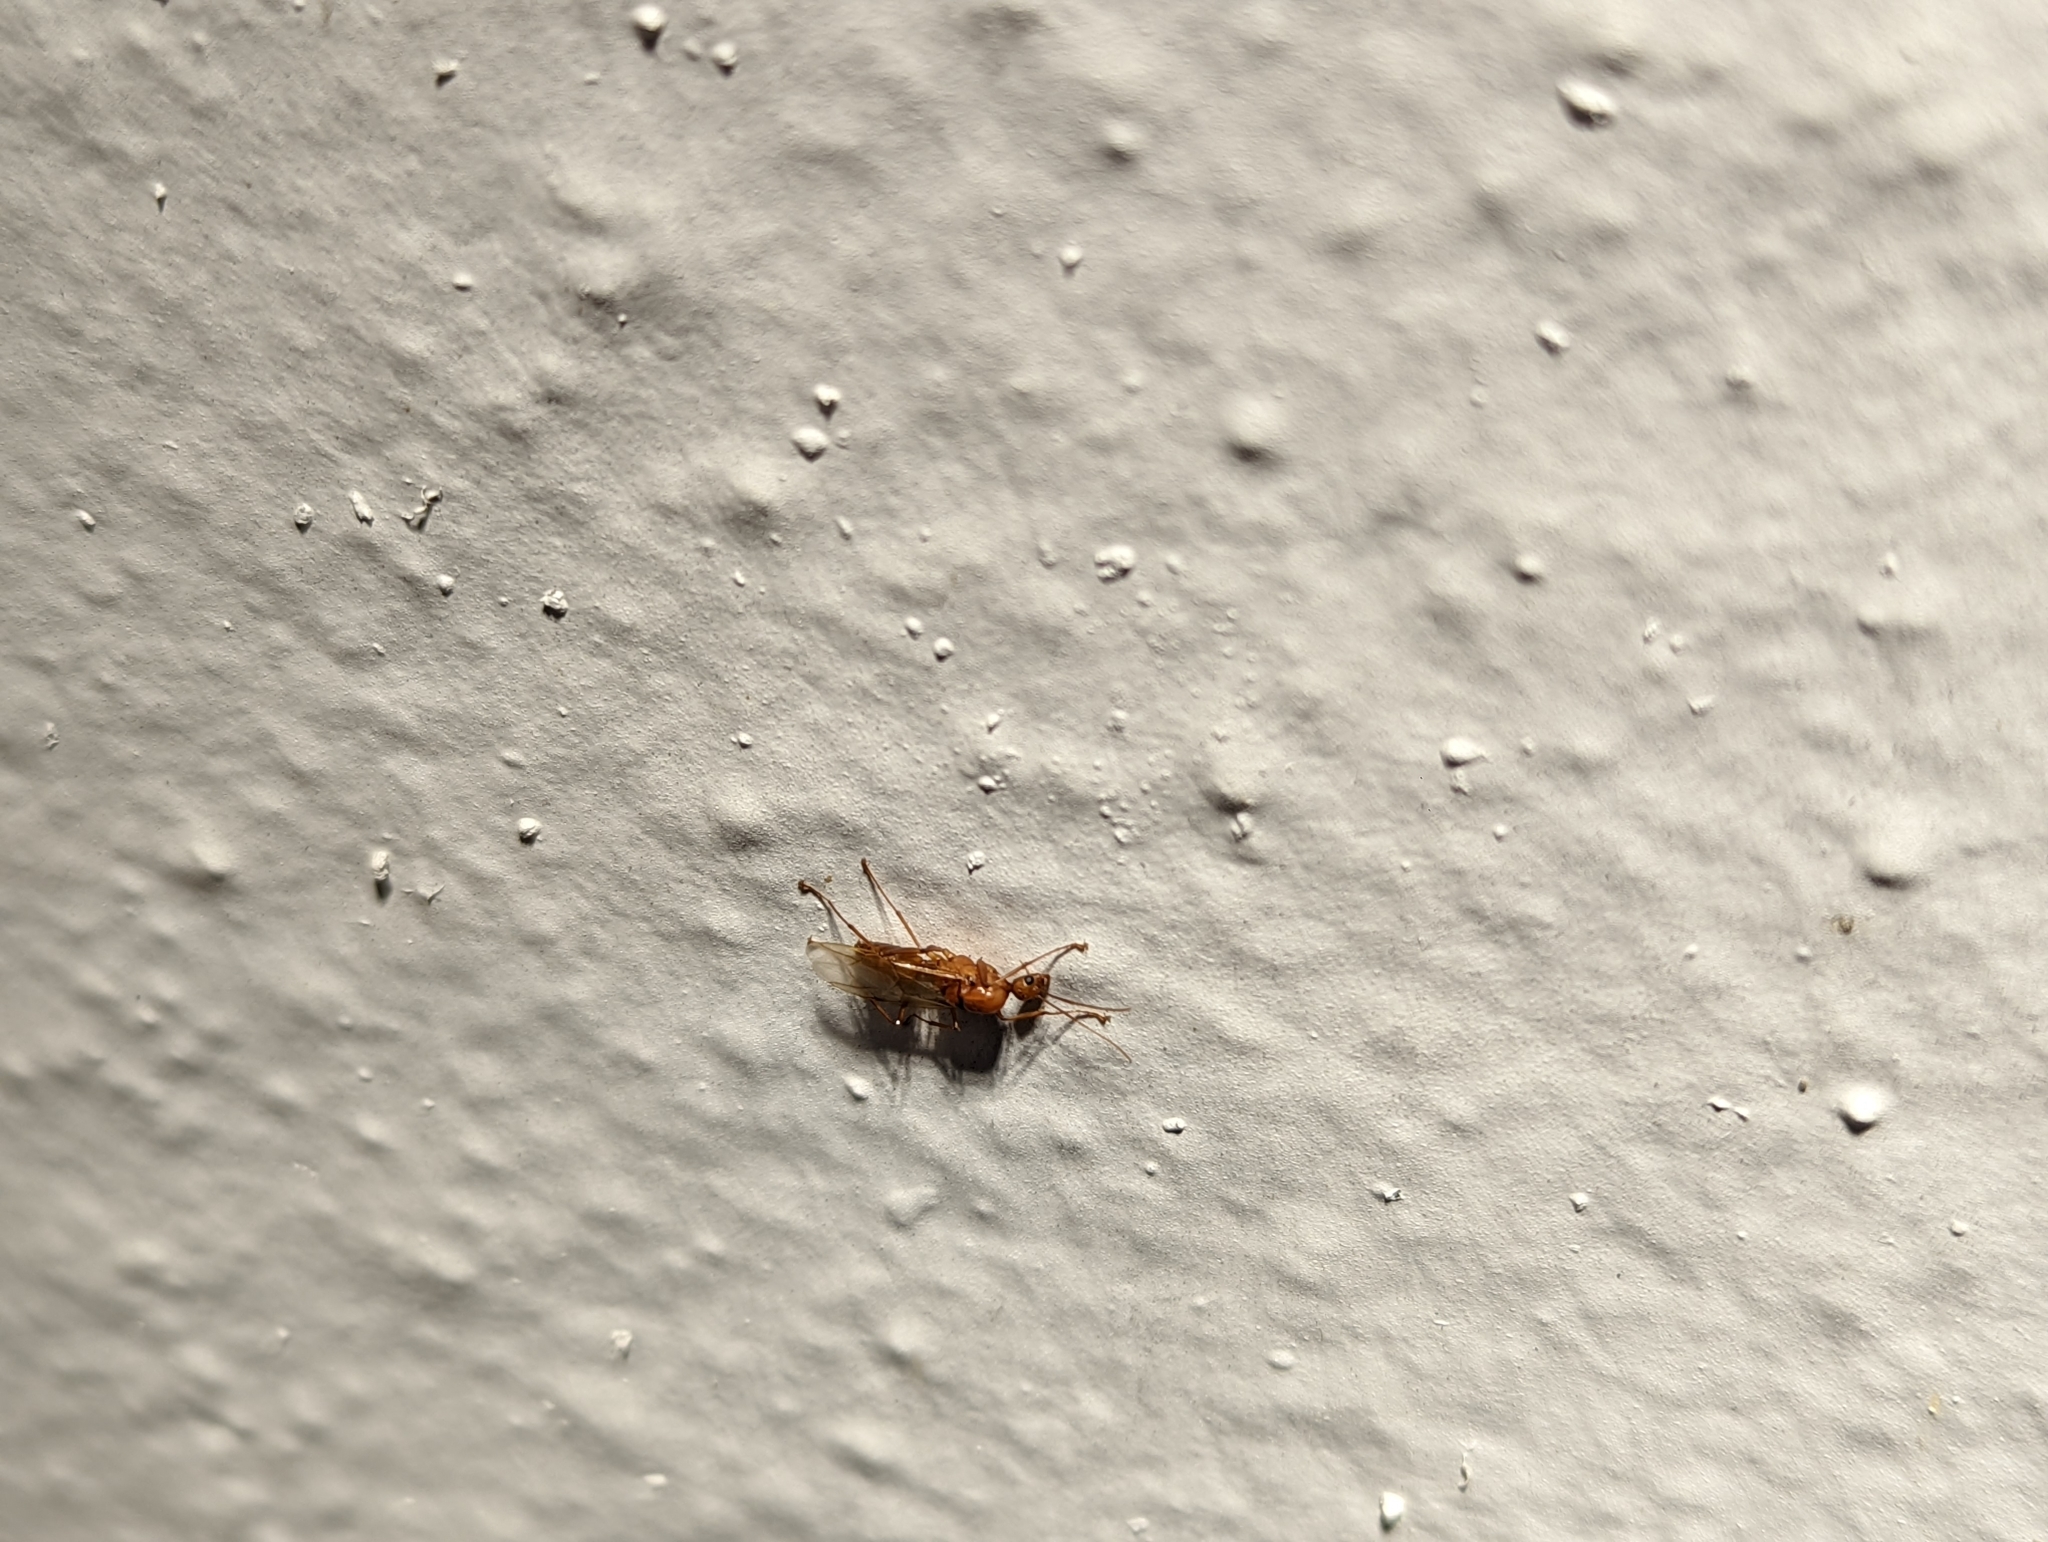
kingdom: Animalia
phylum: Arthropoda
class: Insecta
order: Hymenoptera
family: Formicidae
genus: Camponotus
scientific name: Camponotus castaneus
